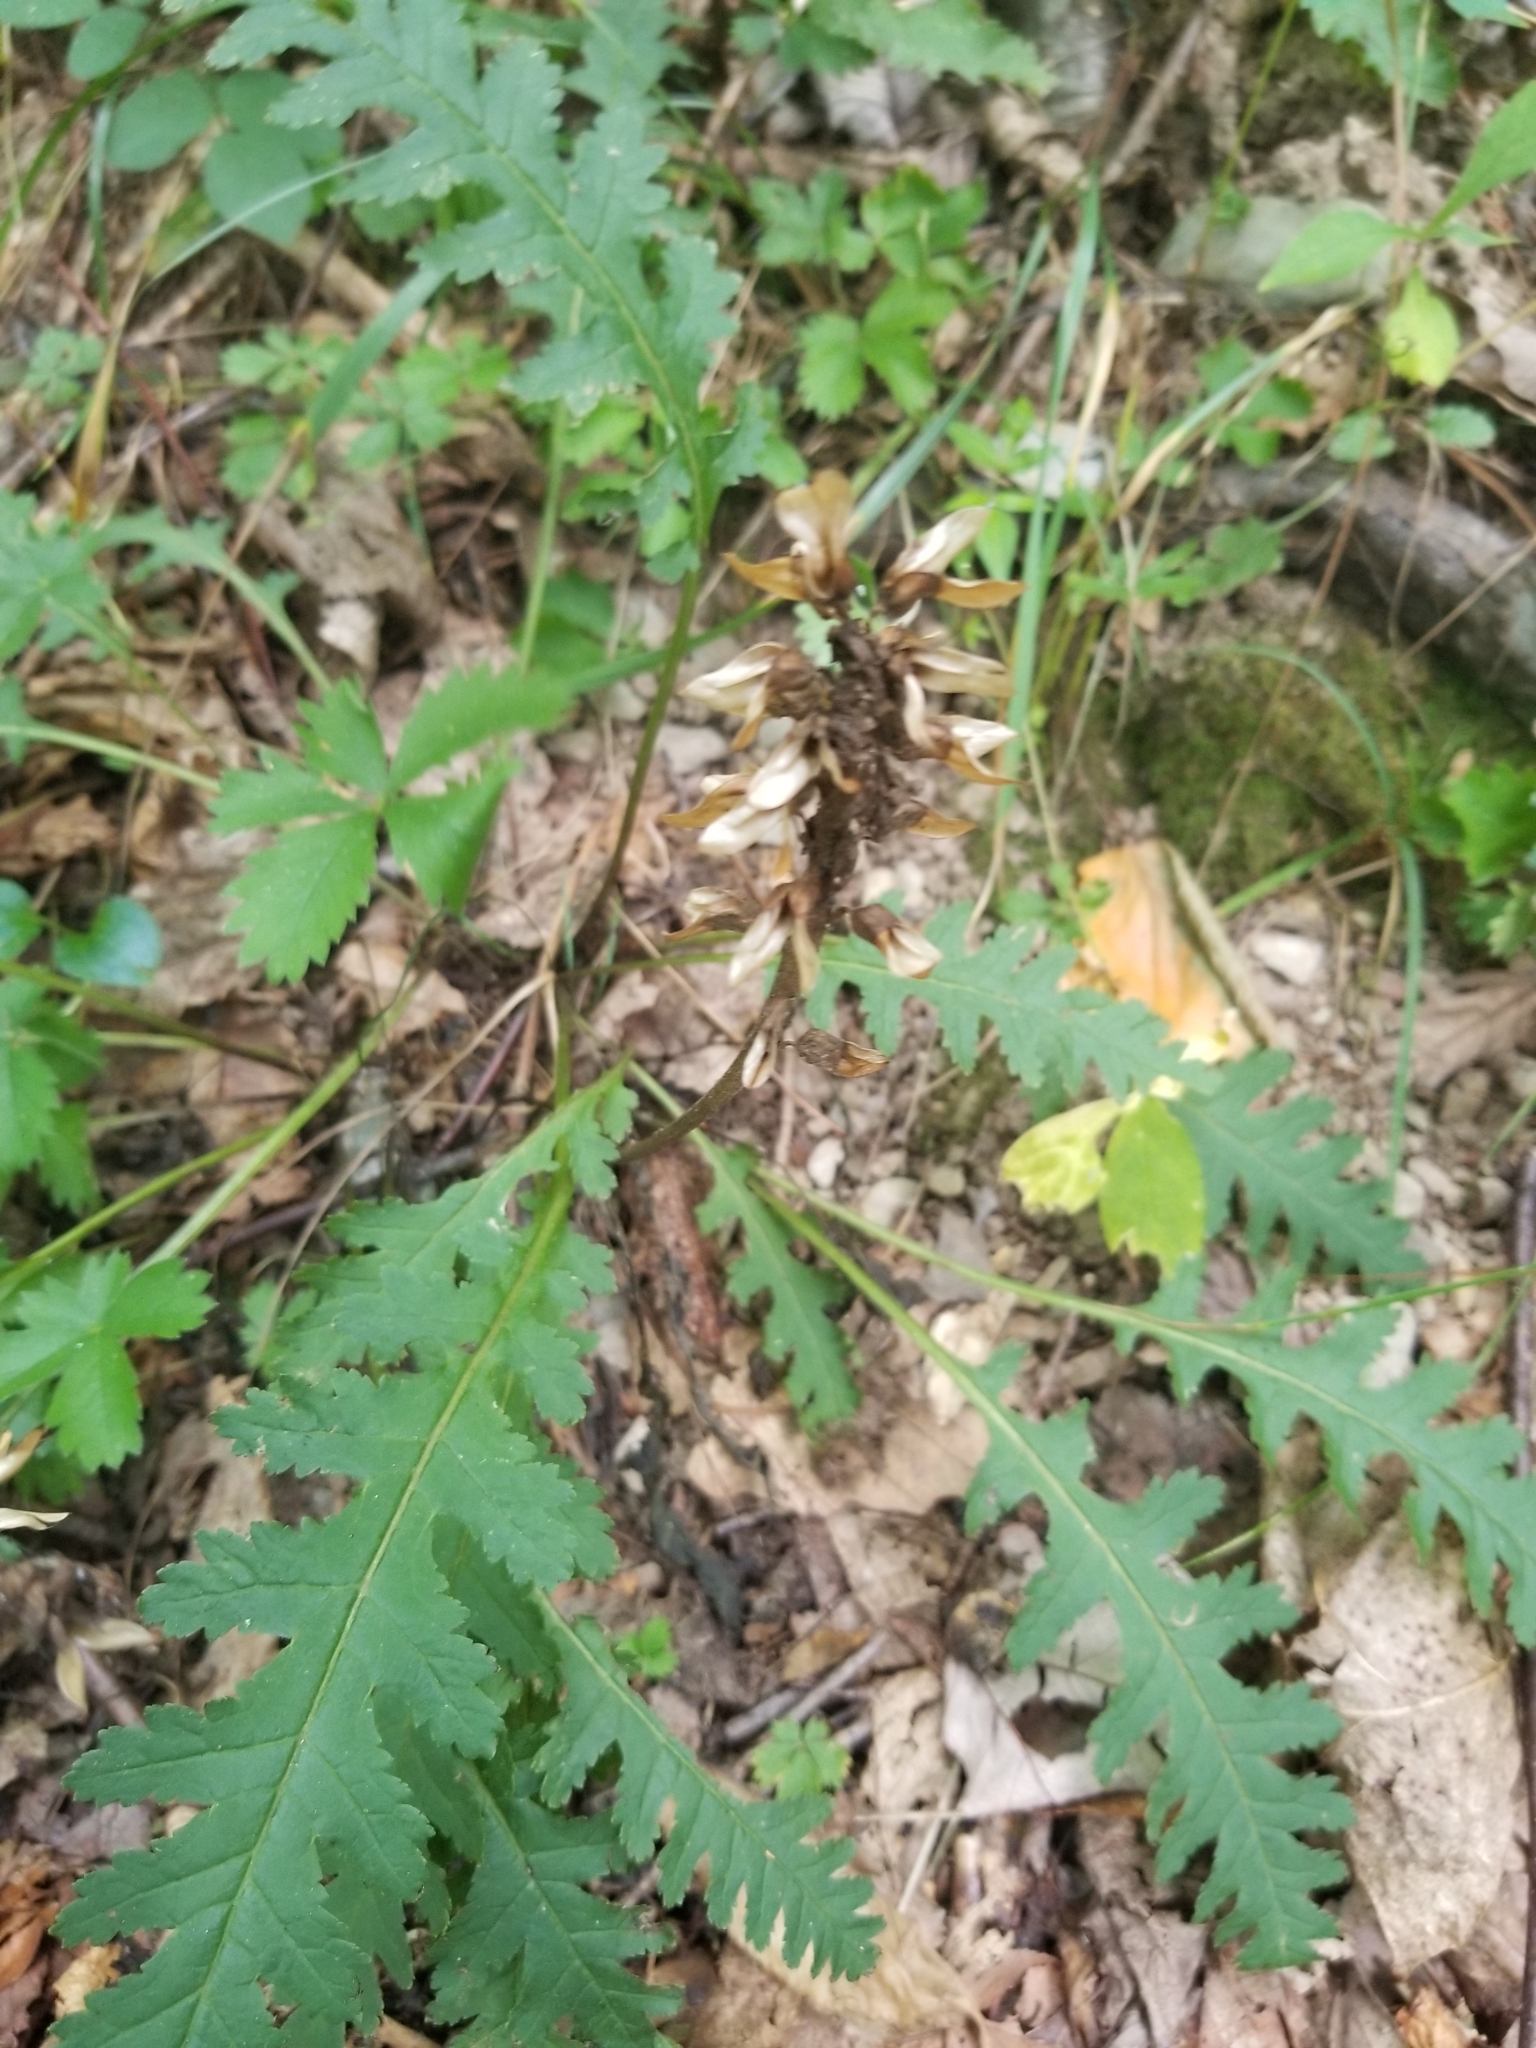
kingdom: Plantae
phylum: Tracheophyta
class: Magnoliopsida
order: Lamiales
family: Orobanchaceae
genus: Pedicularis
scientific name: Pedicularis canadensis
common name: Early lousewort
